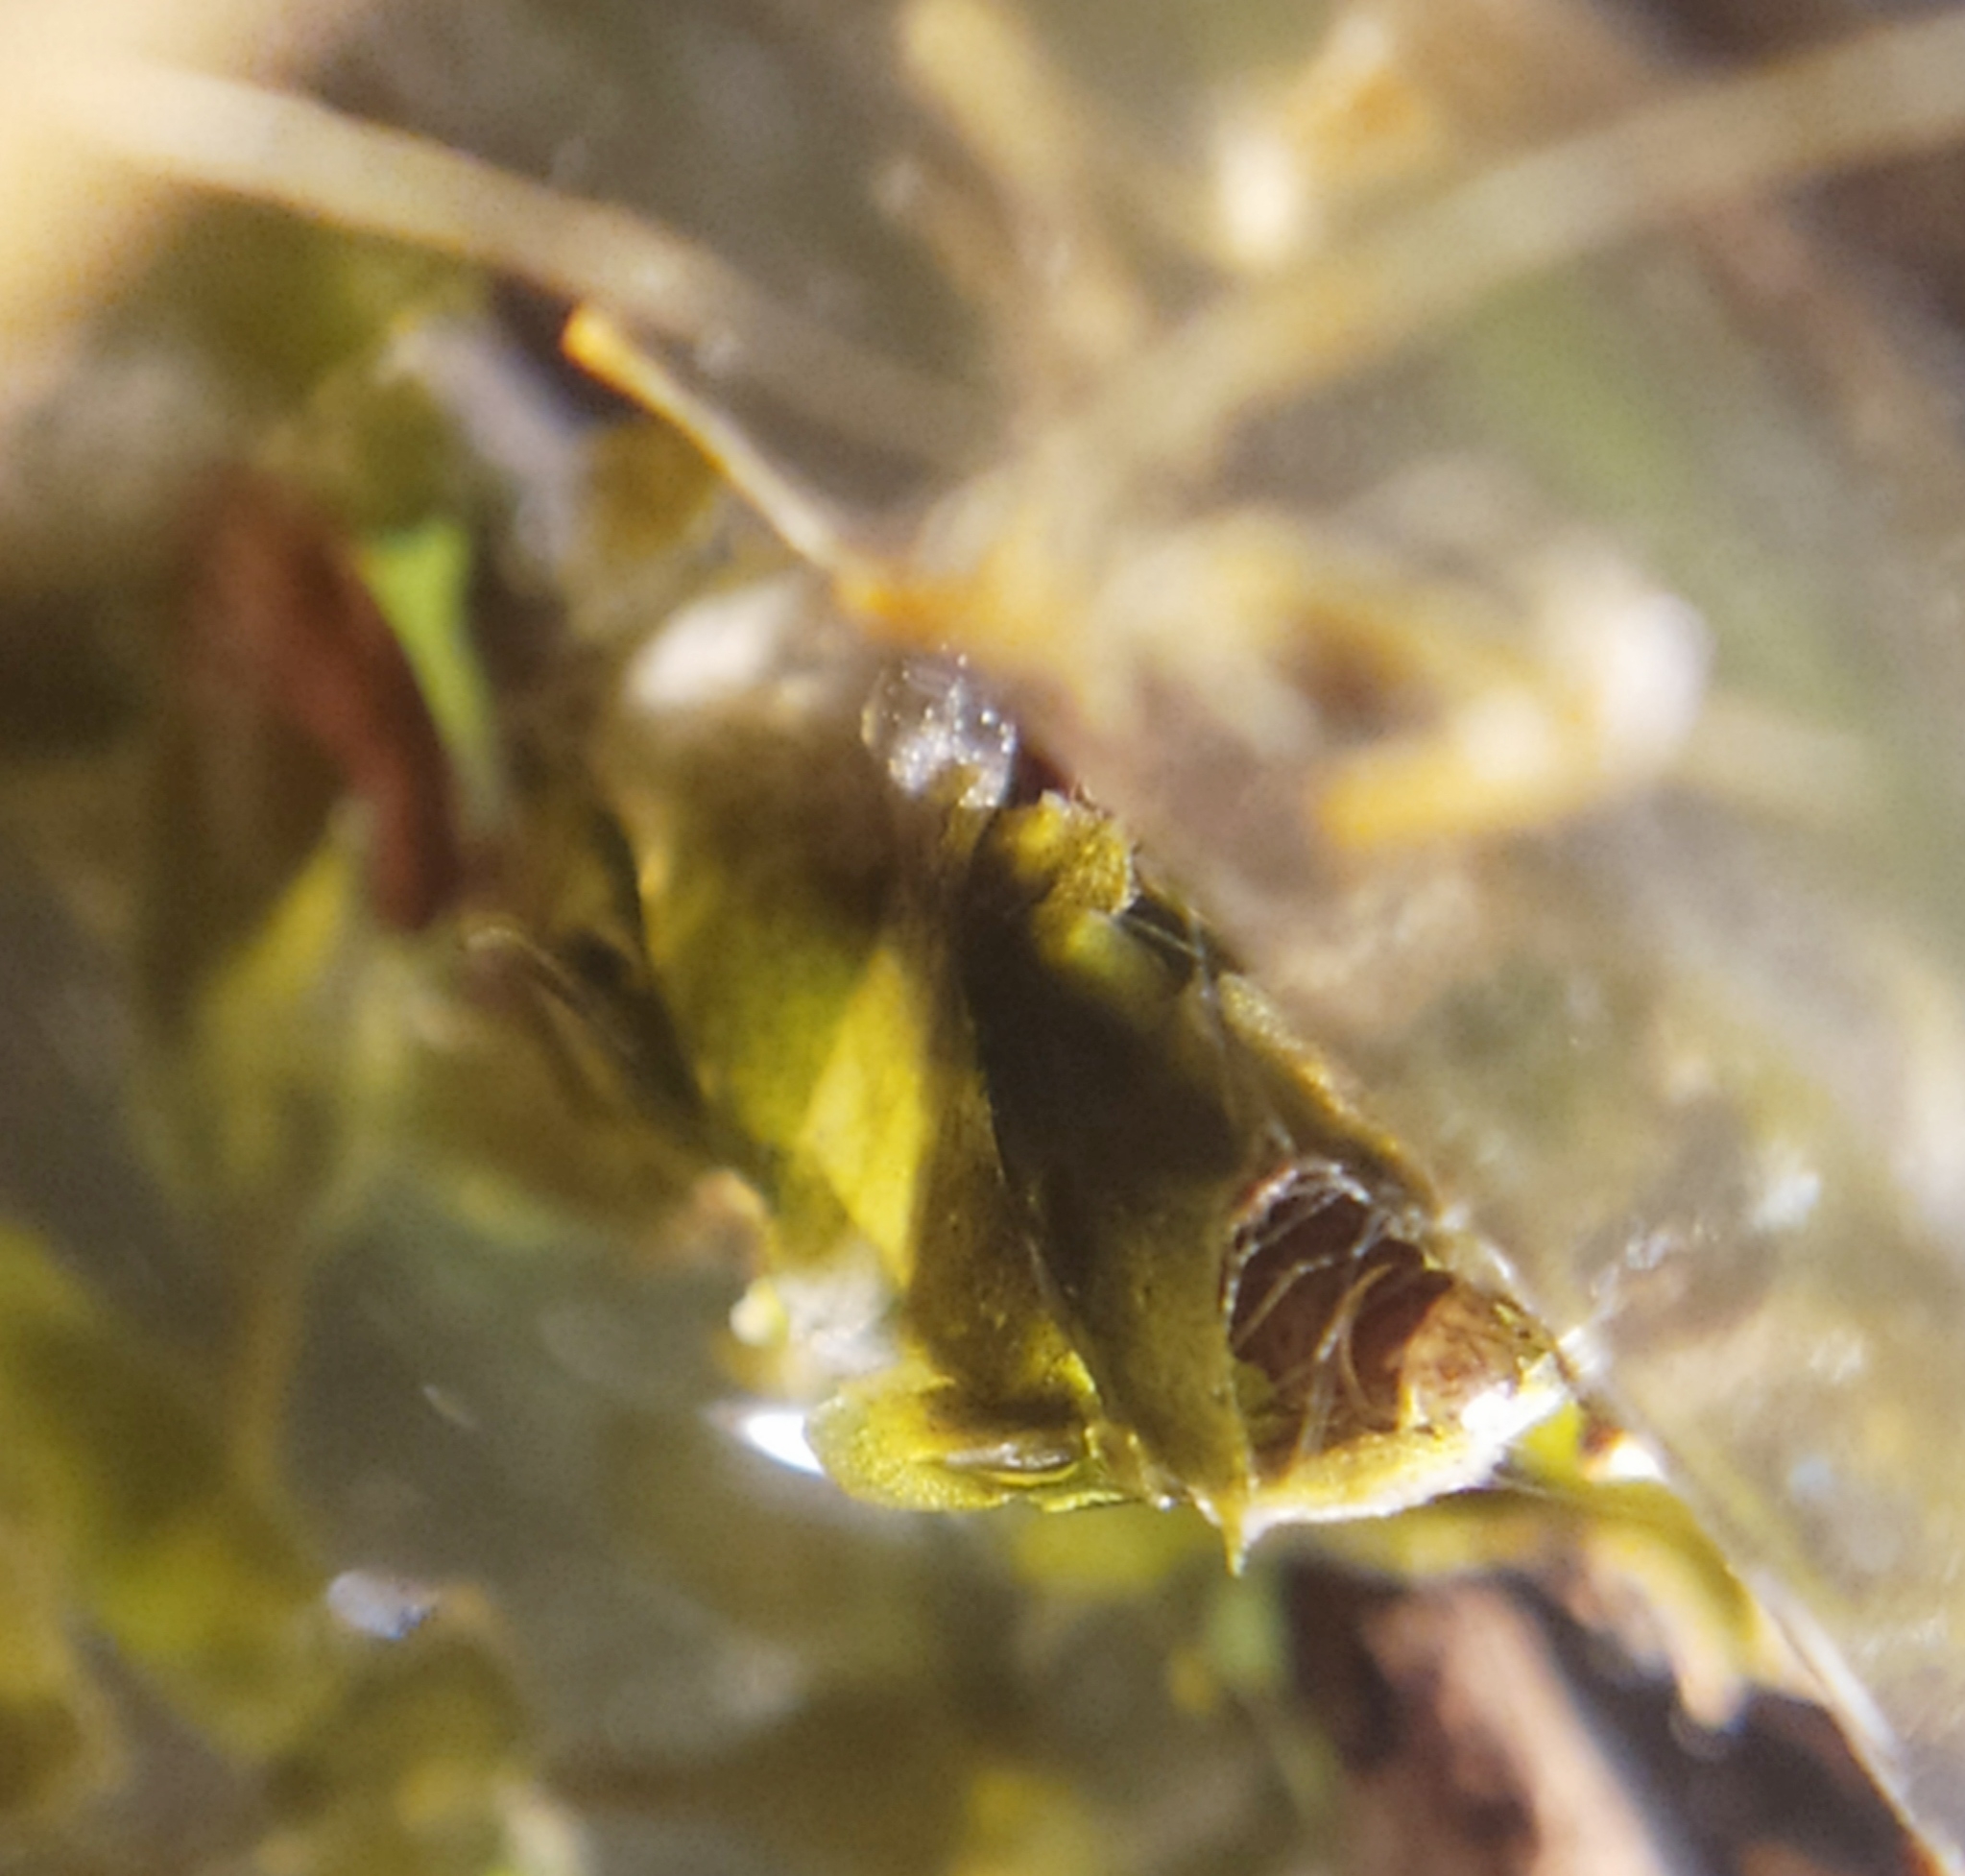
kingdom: Animalia
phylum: Arthropoda
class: Insecta
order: Lepidoptera
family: Crambidae
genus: Cataclysta
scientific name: Cataclysta lemnata
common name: Small china-mark
